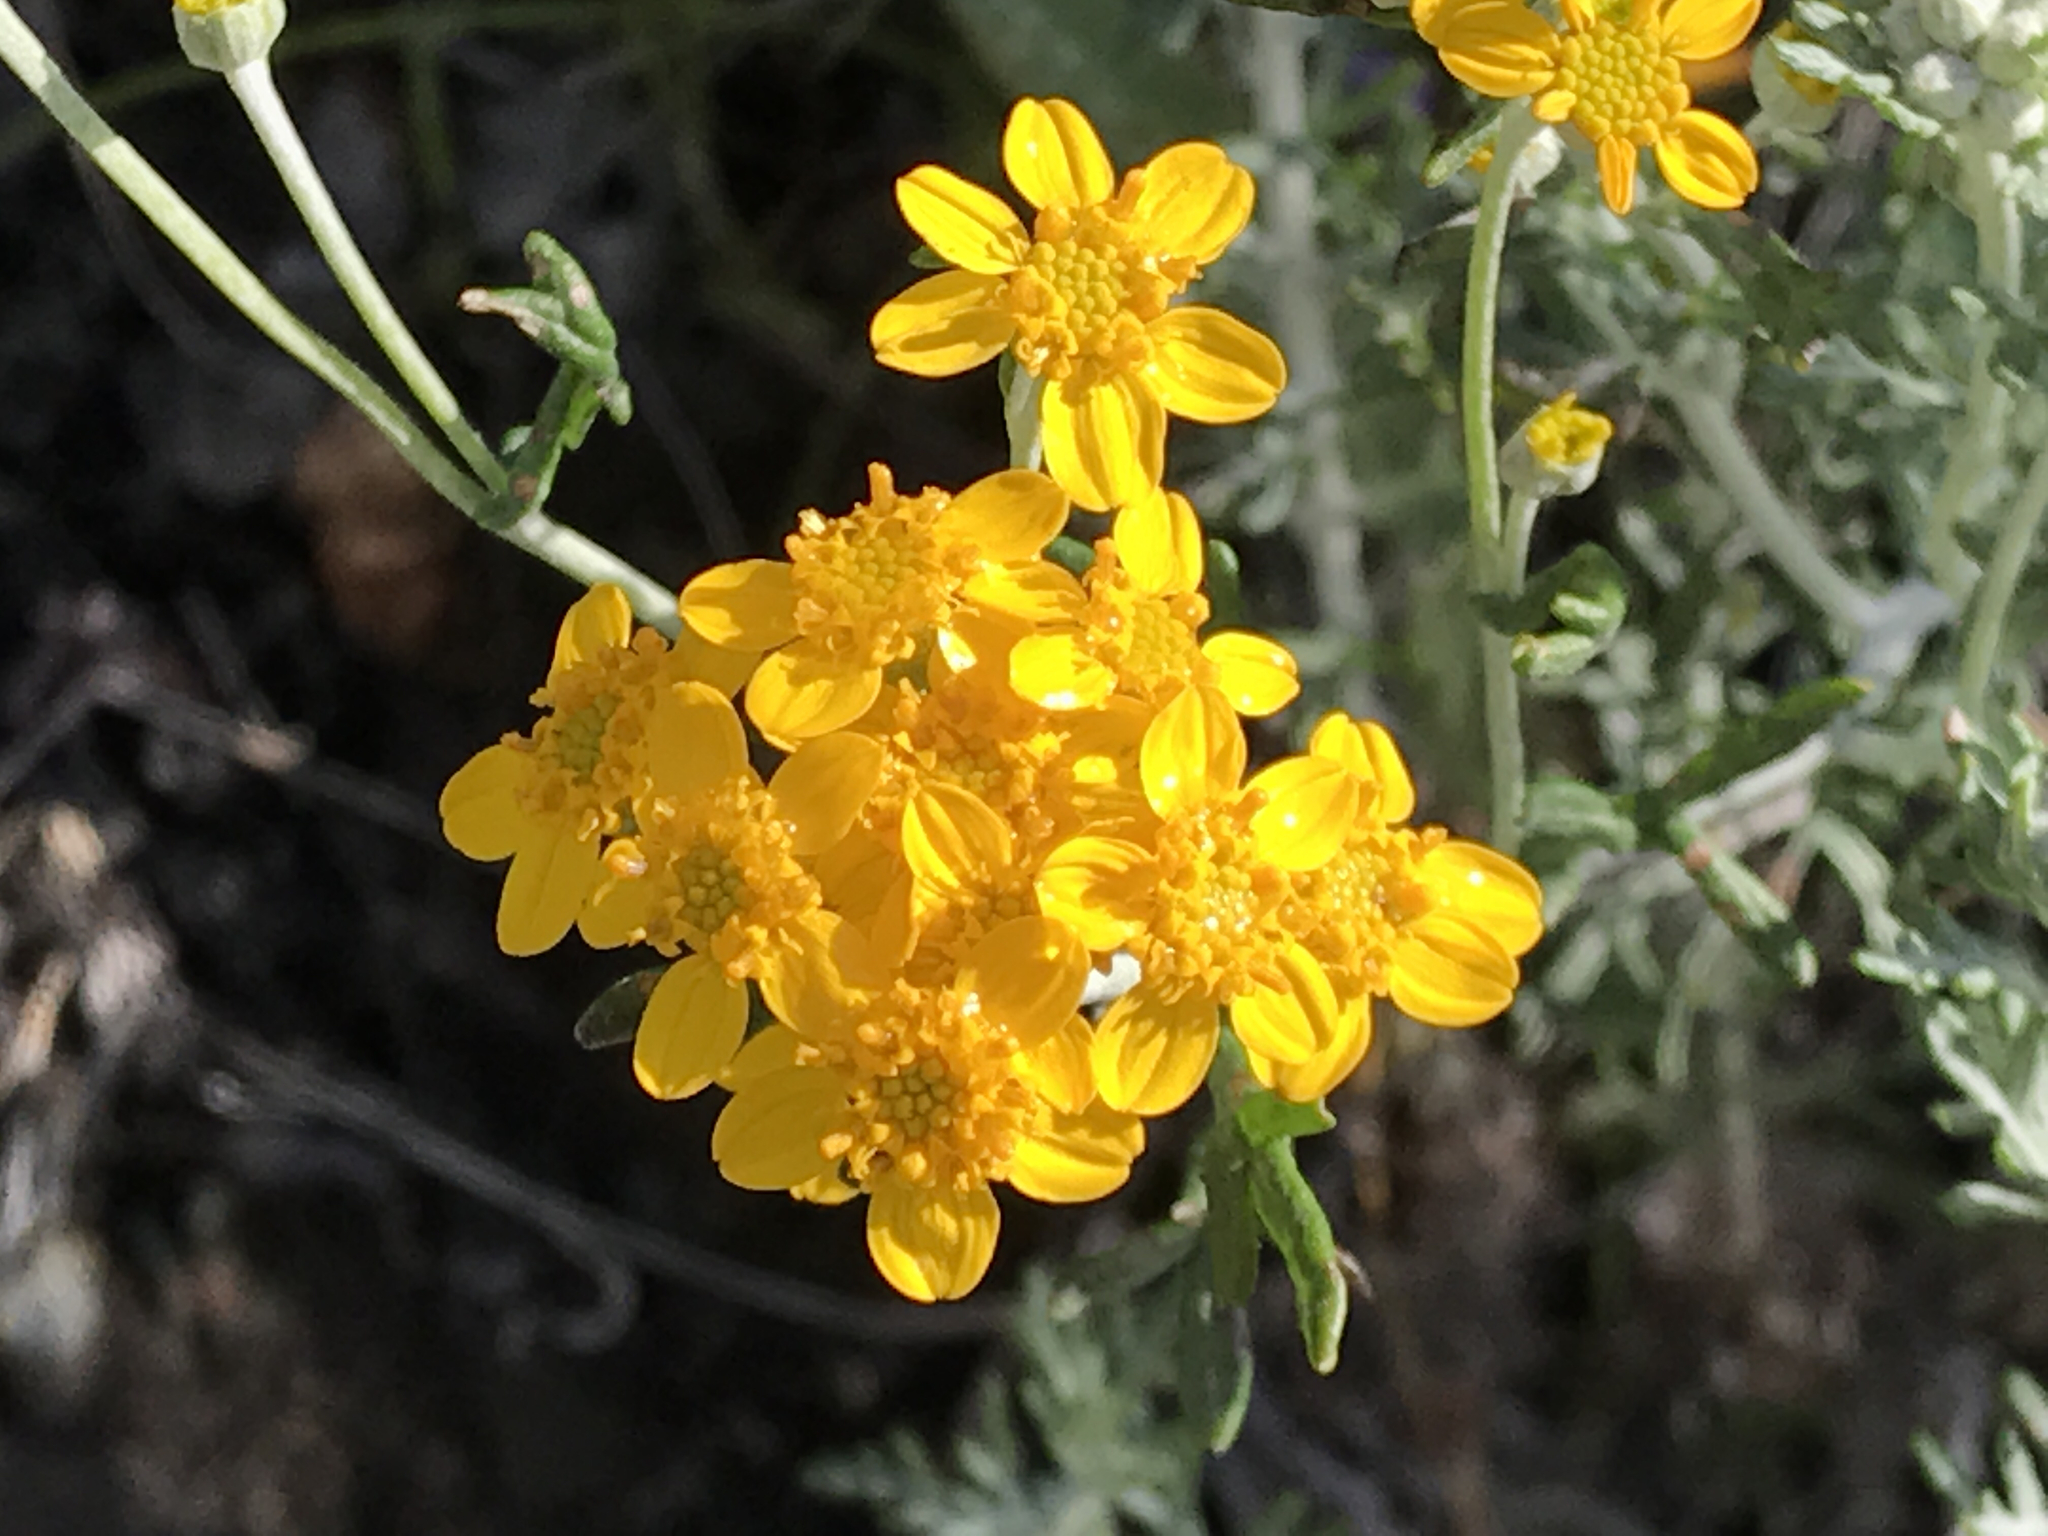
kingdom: Plantae
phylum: Tracheophyta
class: Magnoliopsida
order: Asterales
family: Asteraceae
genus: Eriophyllum
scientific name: Eriophyllum confertiflorum
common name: Golden-yarrow
